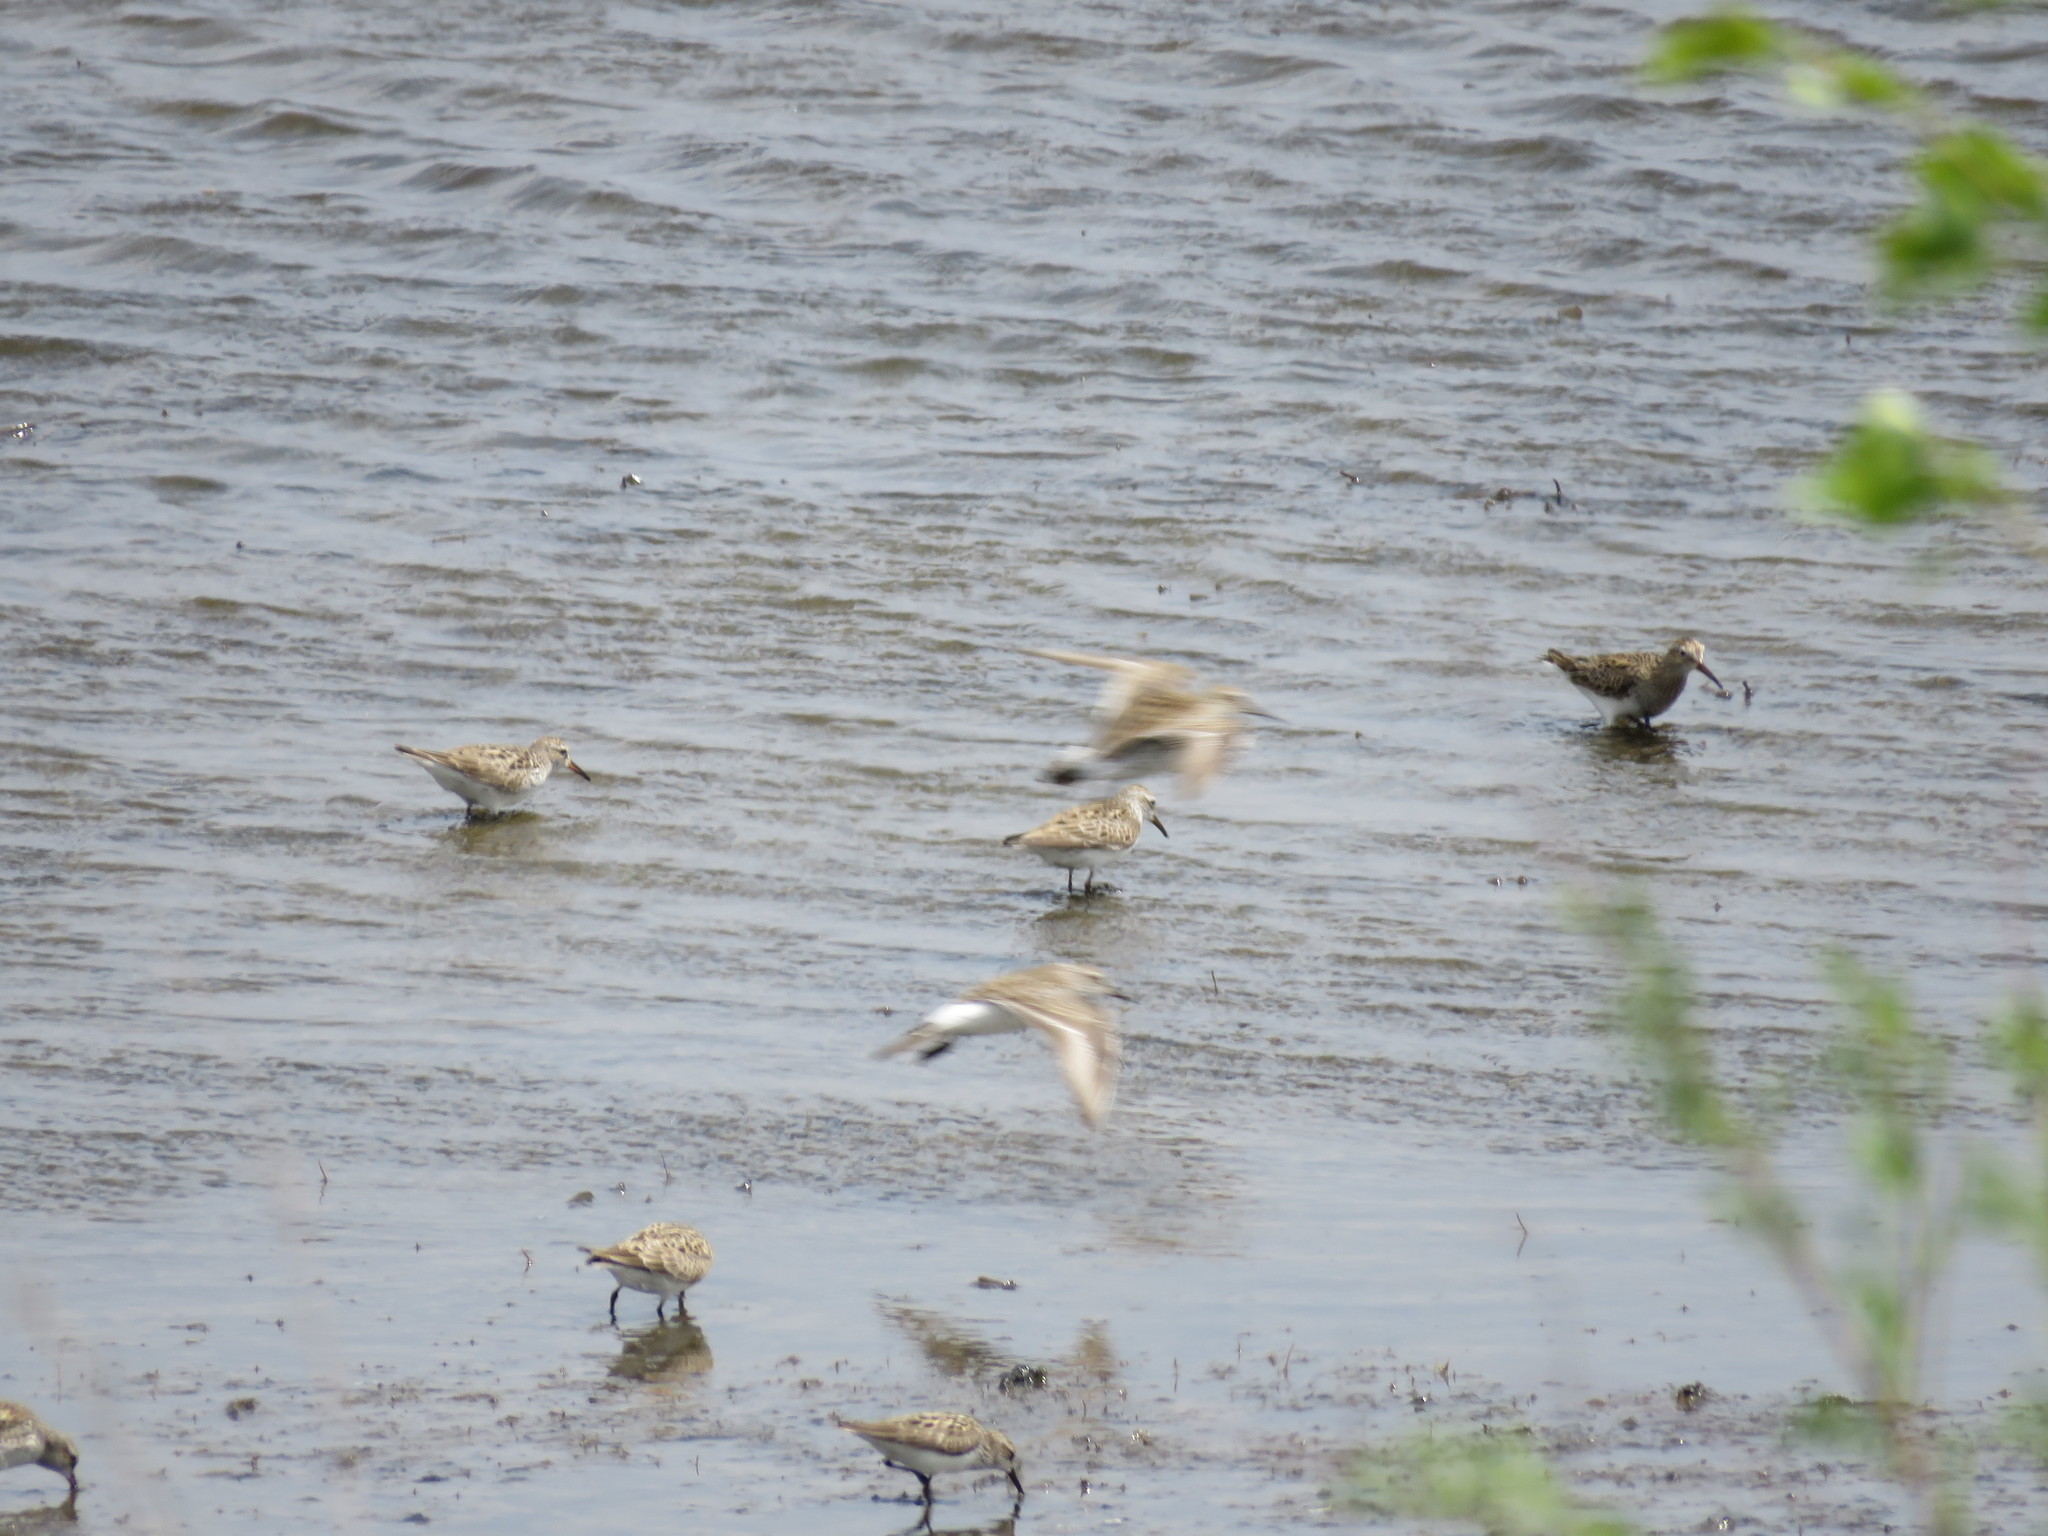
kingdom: Animalia
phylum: Chordata
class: Aves
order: Charadriiformes
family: Scolopacidae
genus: Calidris
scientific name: Calidris fuscicollis
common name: White-rumped sandpiper
